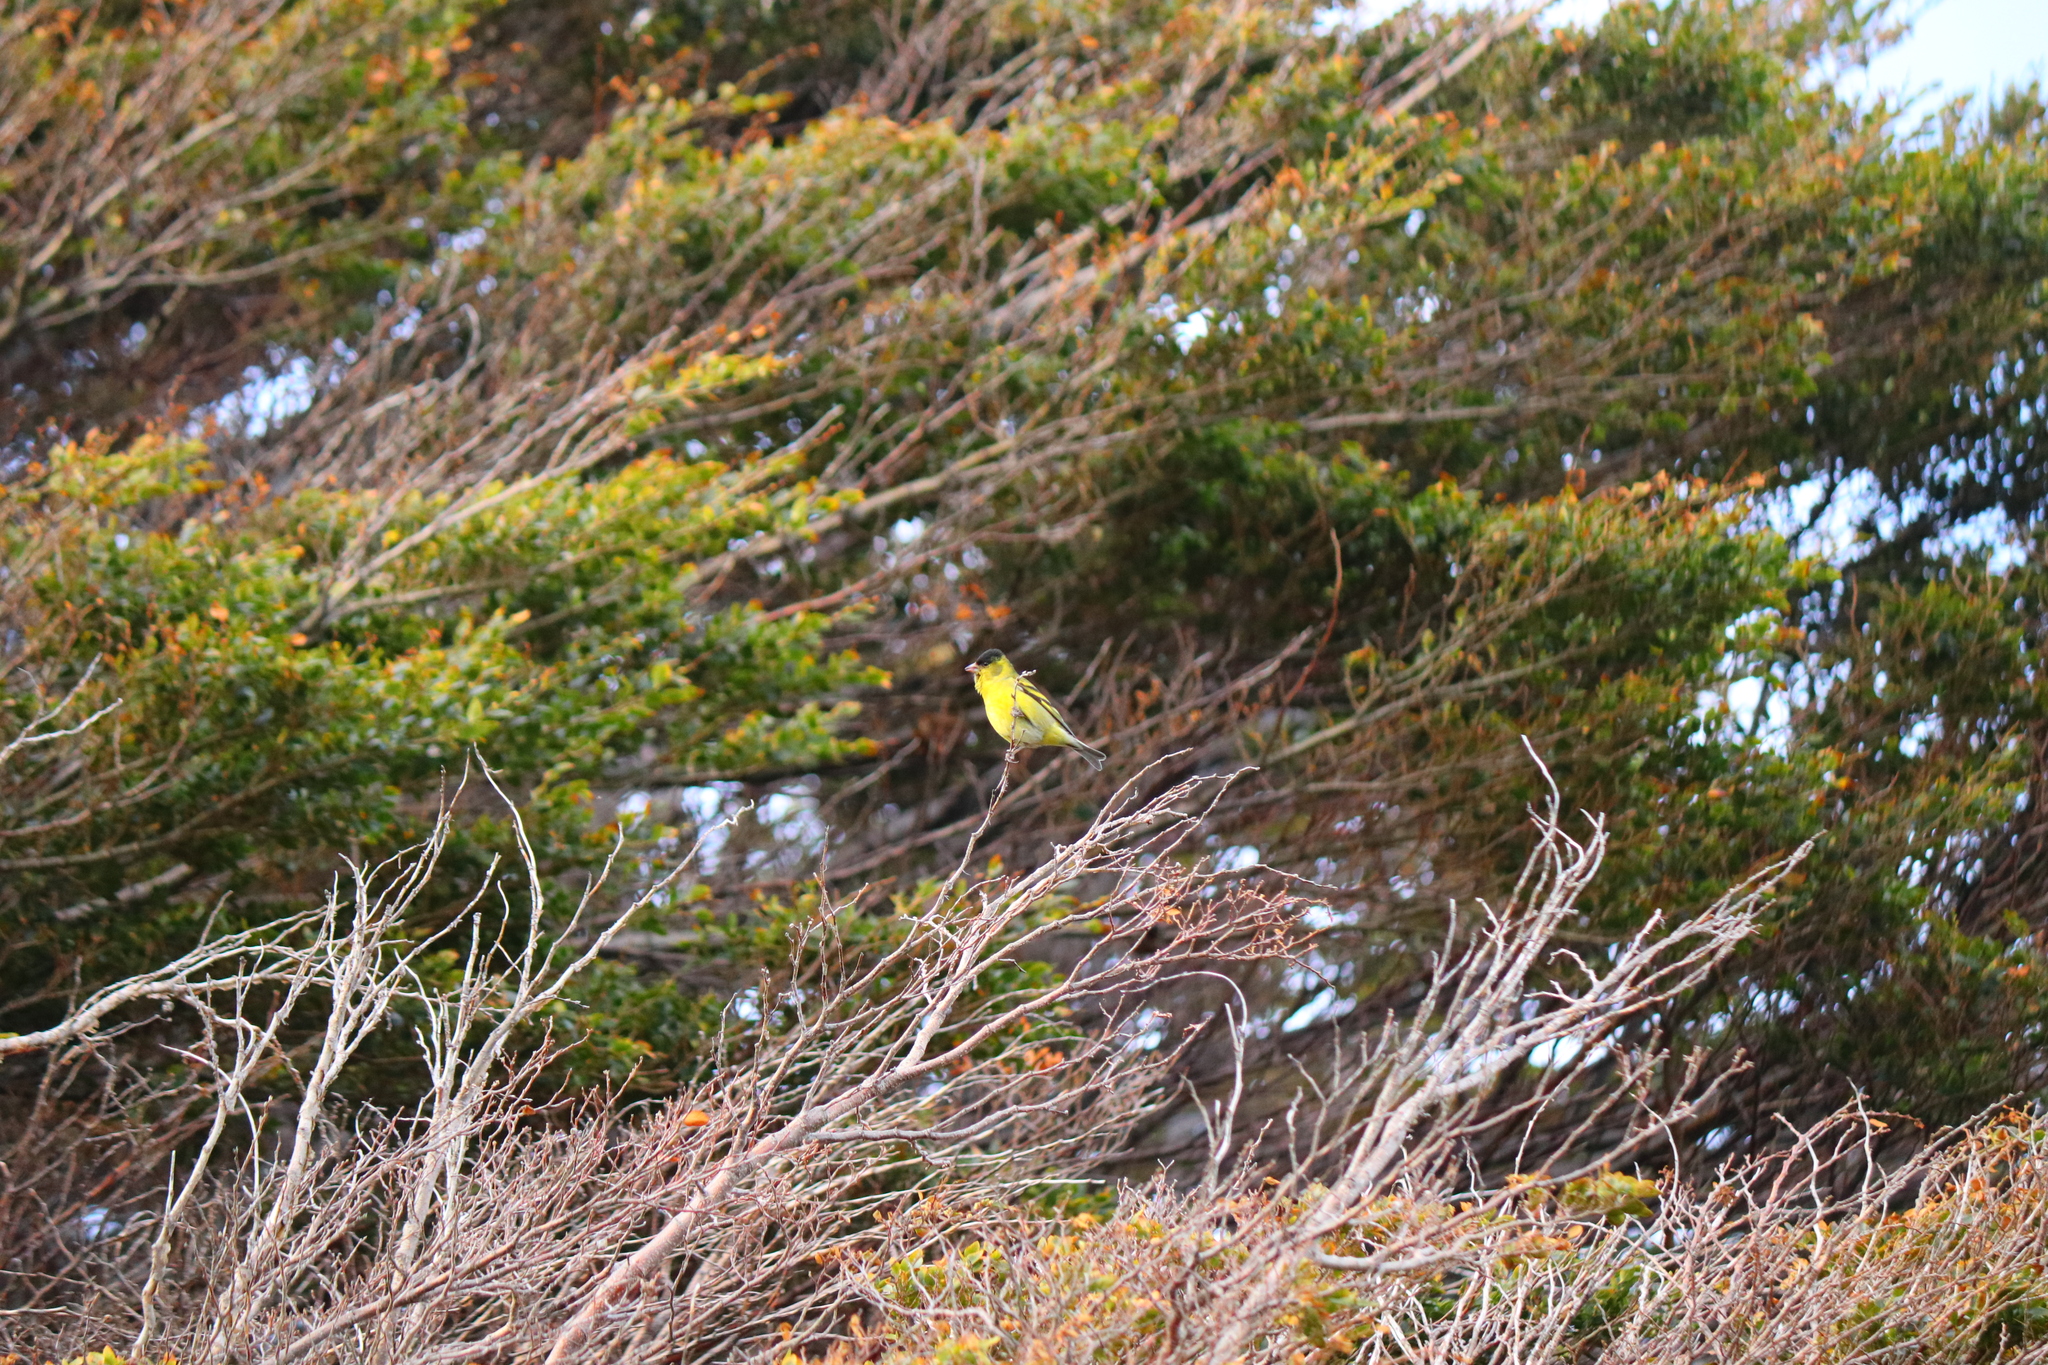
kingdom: Animalia
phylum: Chordata
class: Aves
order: Passeriformes
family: Fringillidae
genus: Spinus
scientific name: Spinus barbatus
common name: Black-chinned siskin
